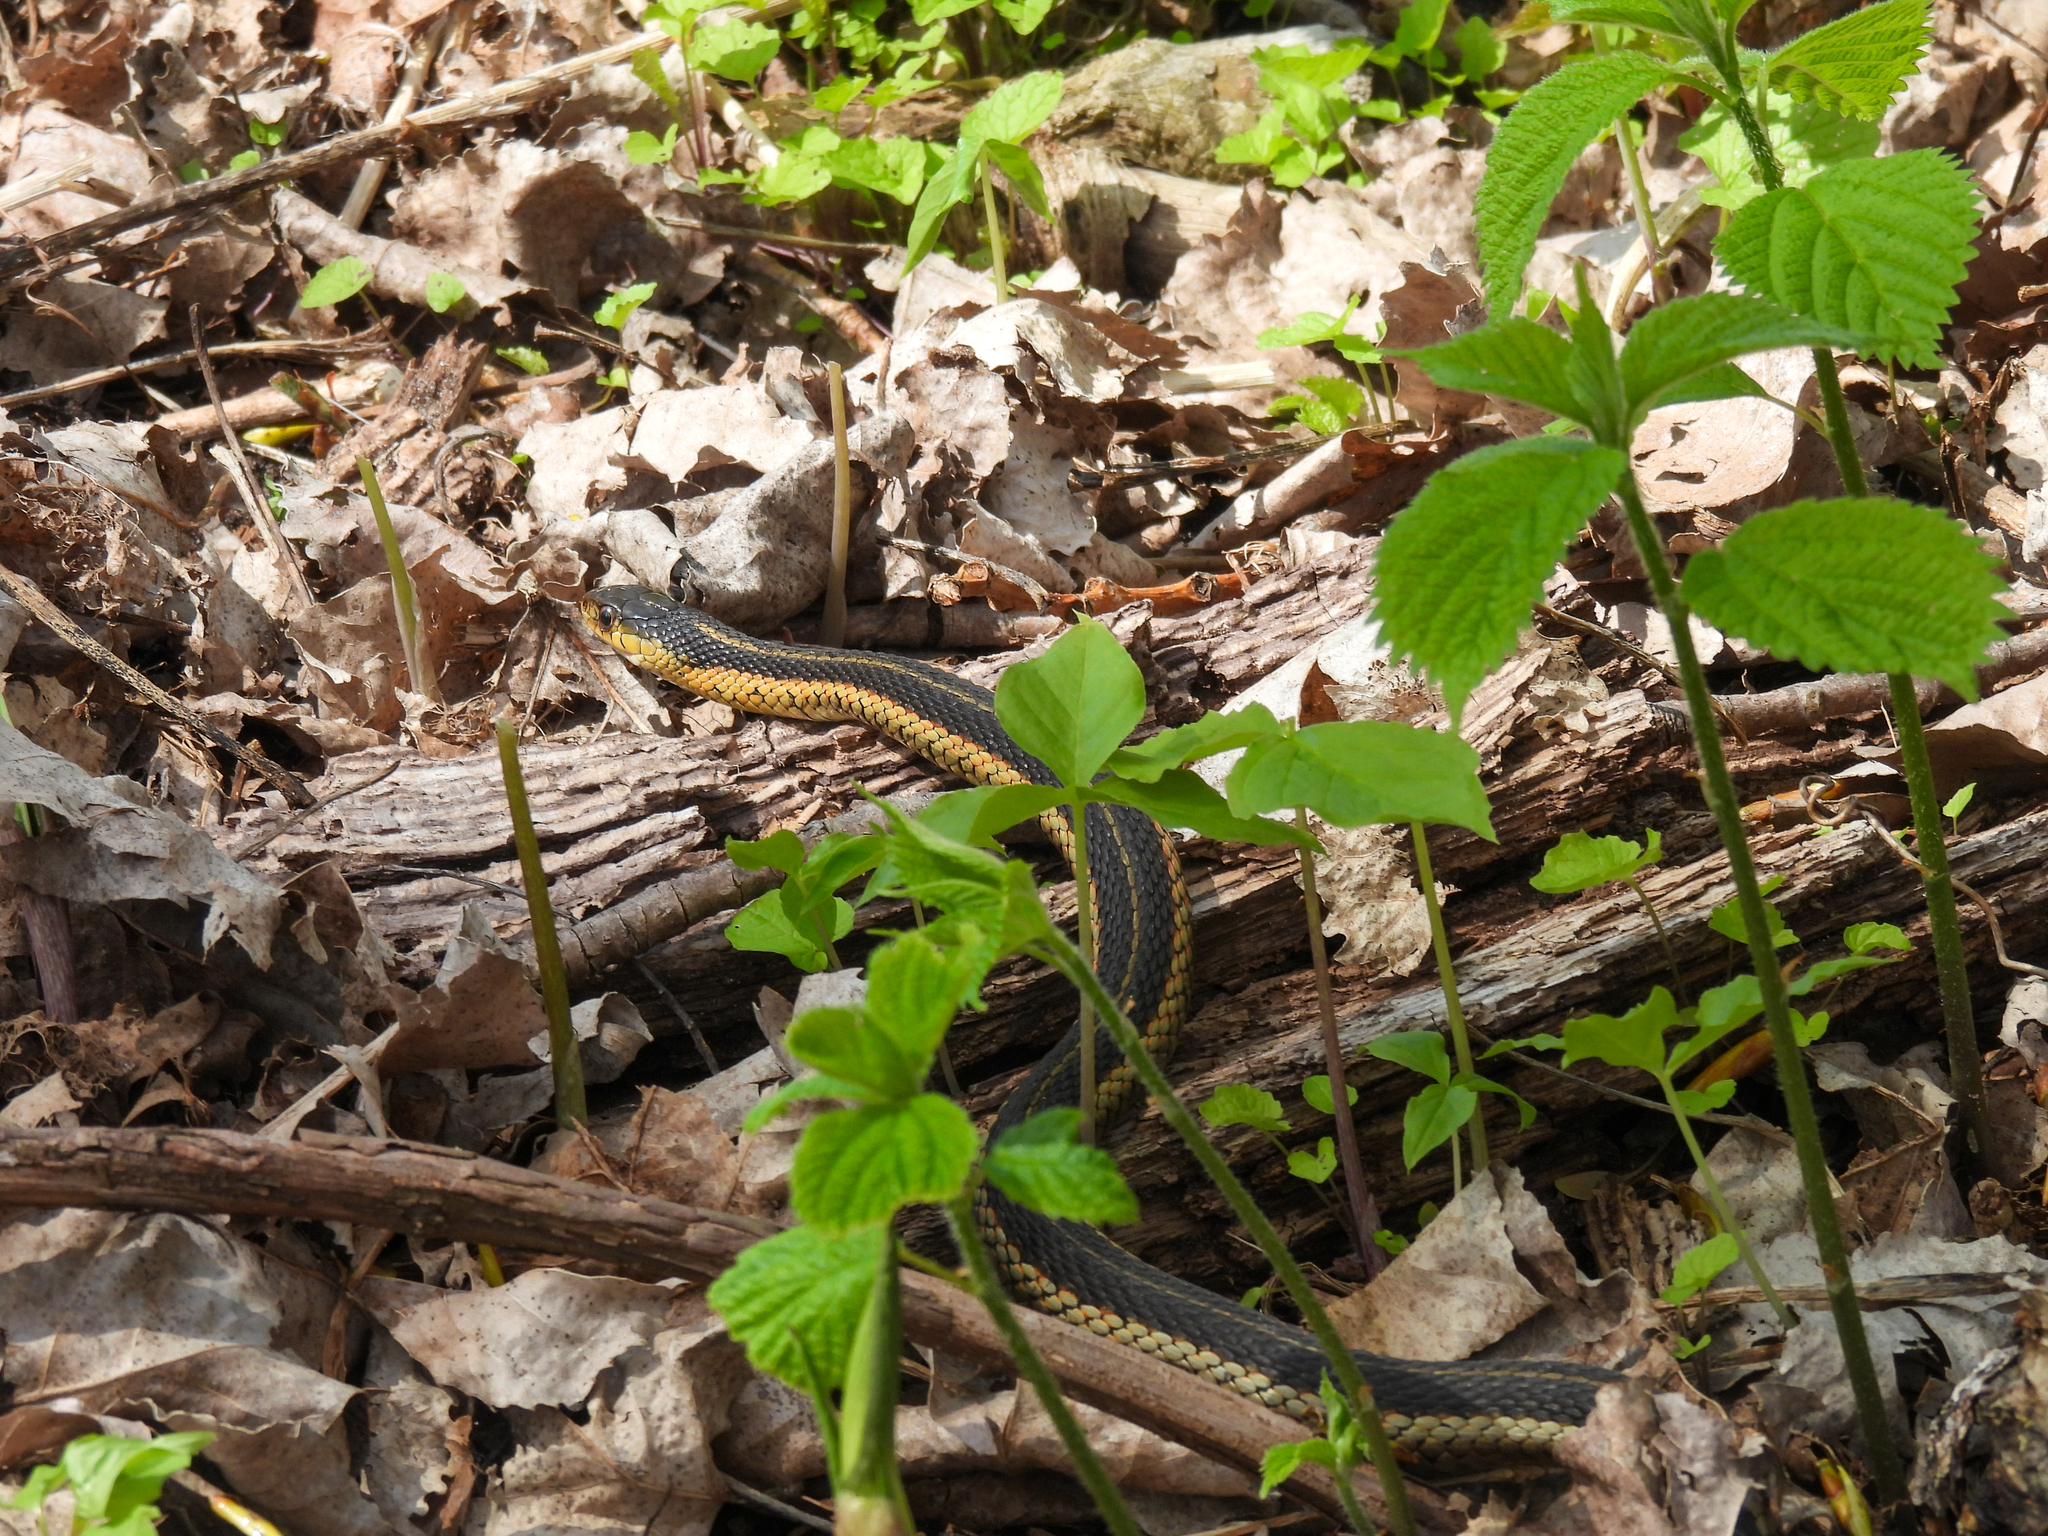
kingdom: Animalia
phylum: Chordata
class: Squamata
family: Colubridae
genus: Thamnophis
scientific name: Thamnophis sirtalis
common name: Common garter snake
